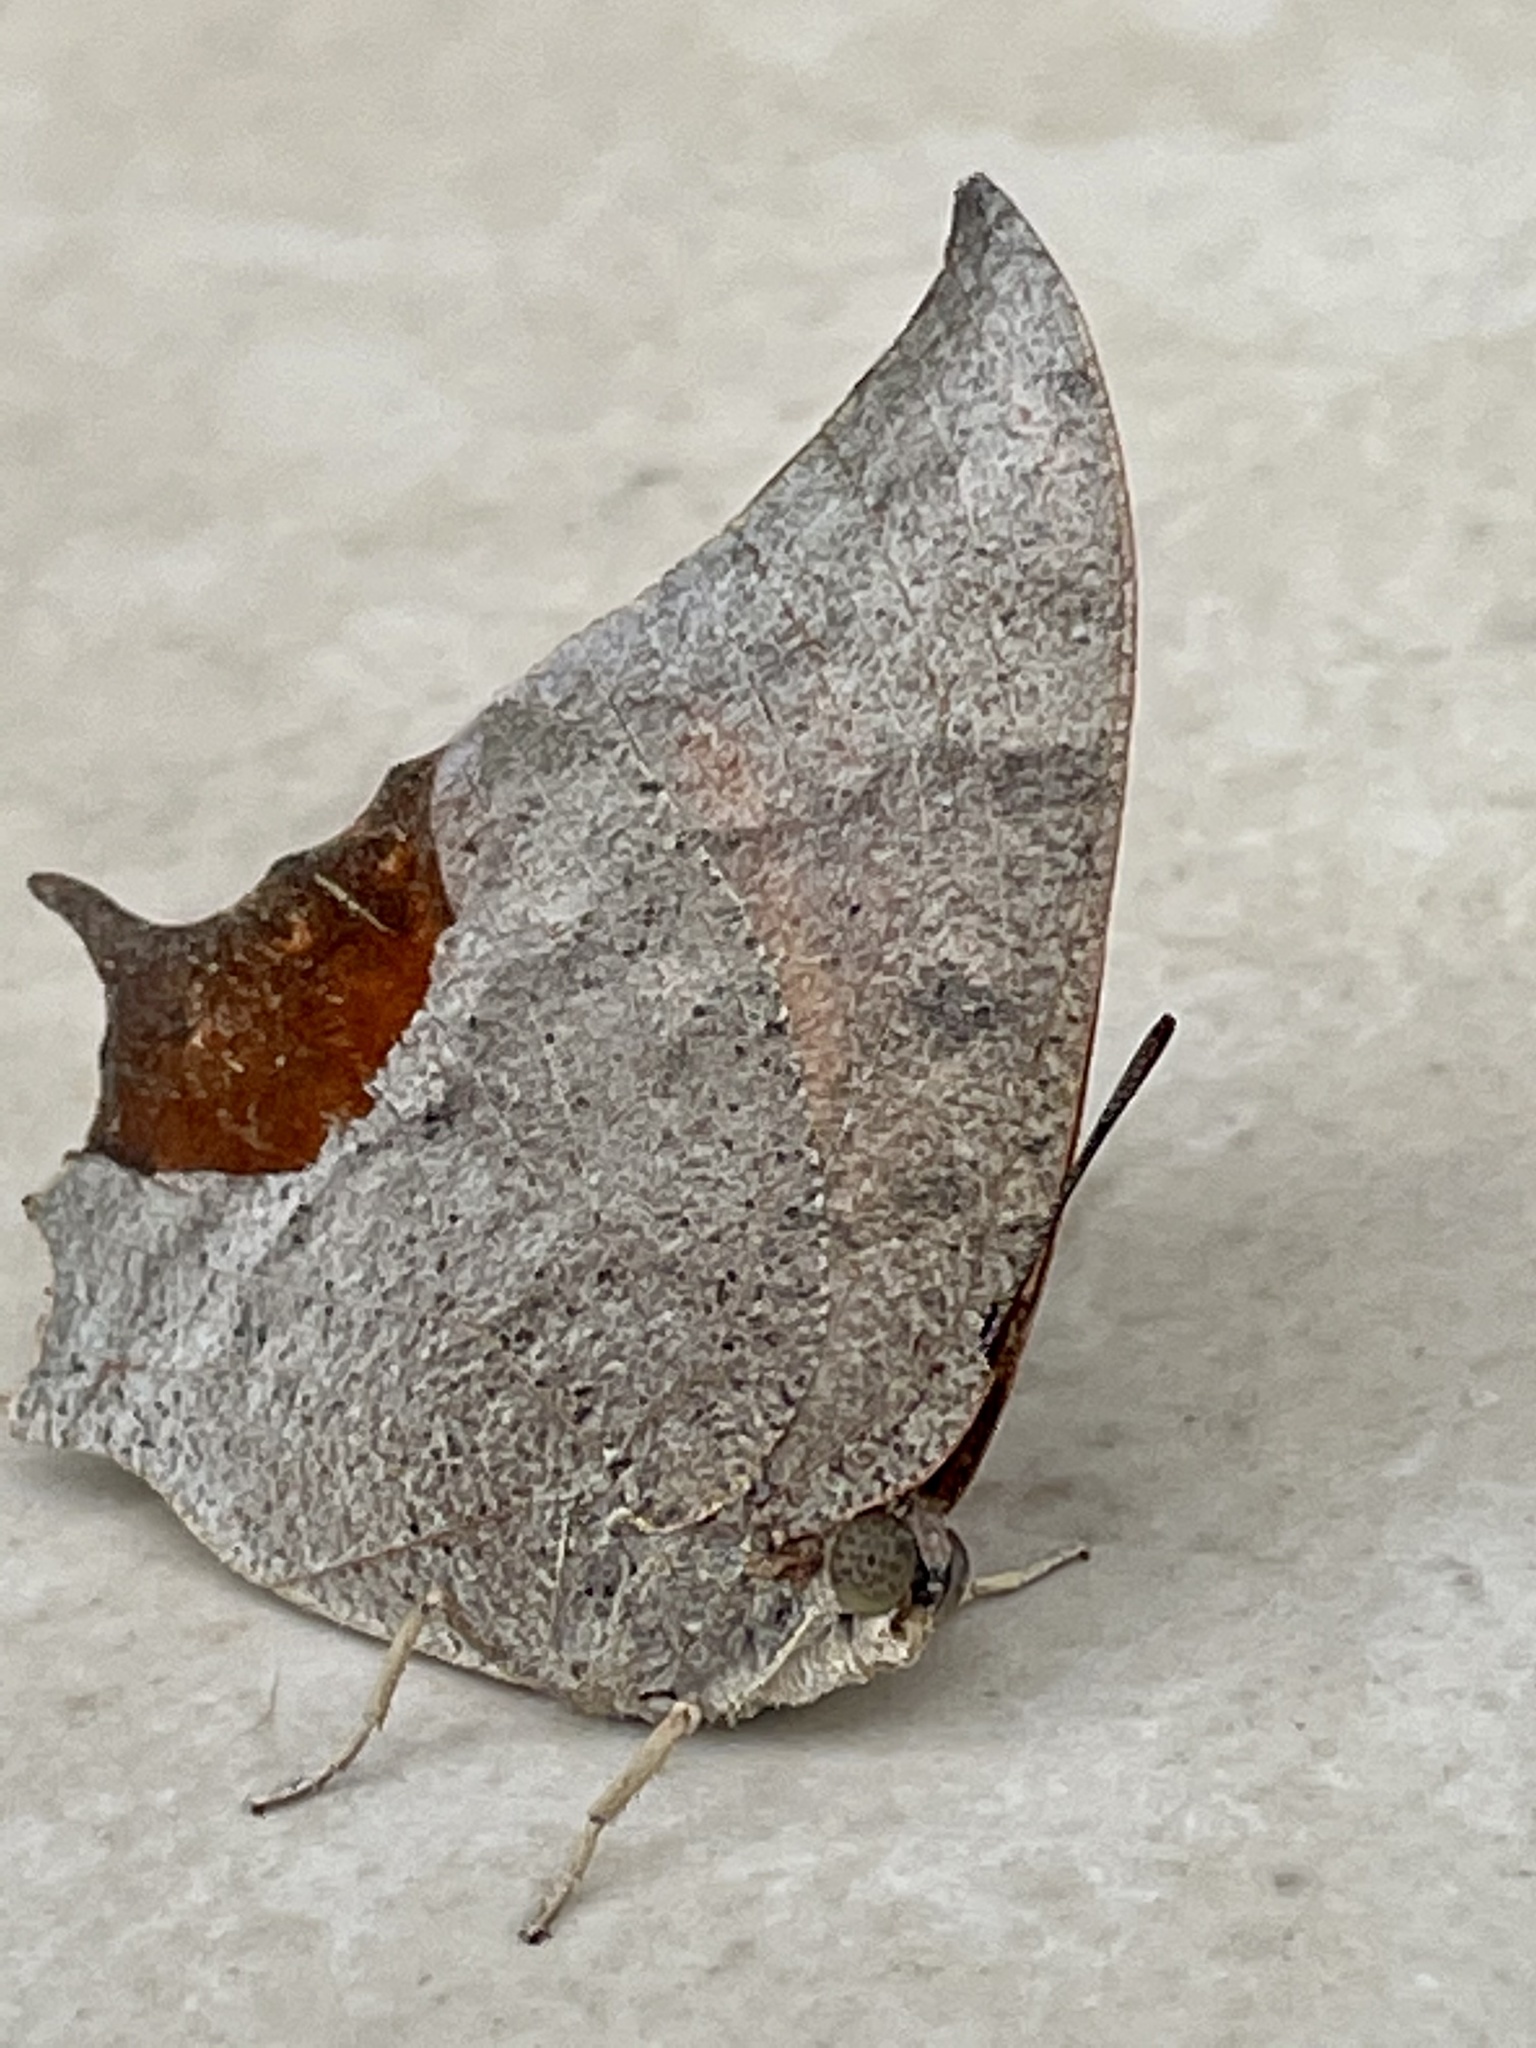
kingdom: Animalia
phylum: Arthropoda
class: Insecta
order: Lepidoptera
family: Nymphalidae
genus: Anaea
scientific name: Anaea aidea
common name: Tropical leafwing
